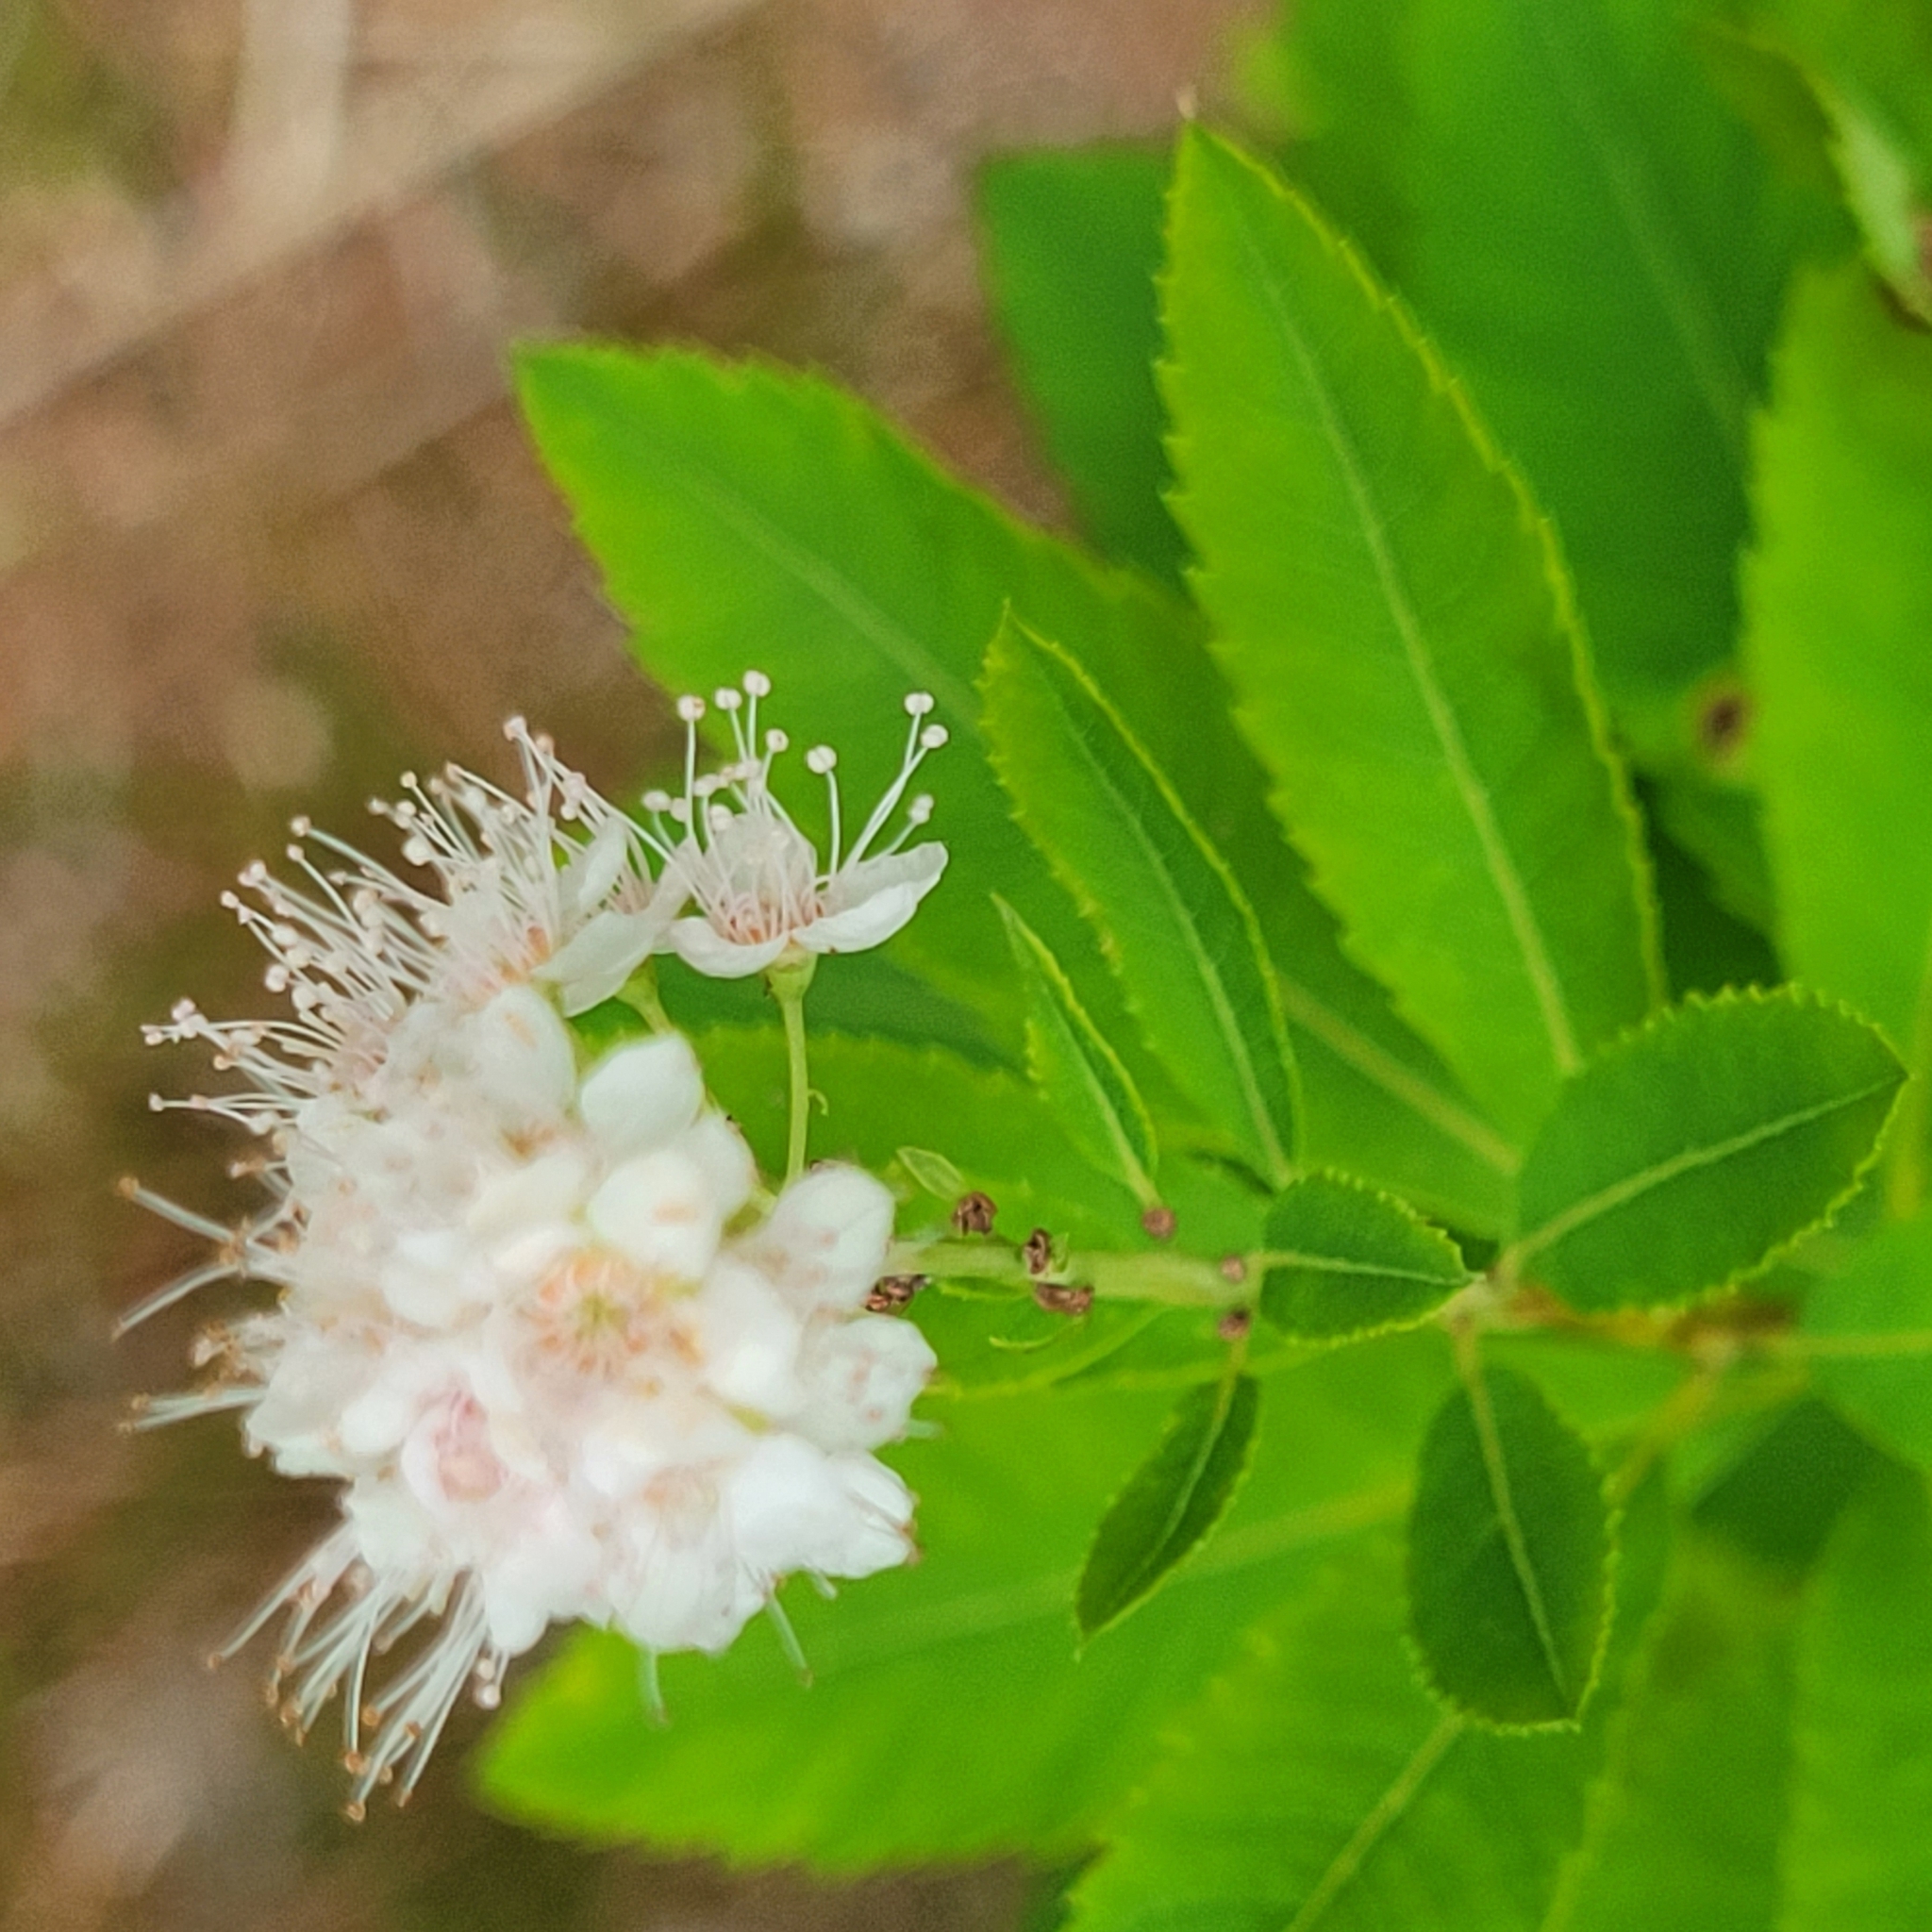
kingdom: Plantae
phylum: Tracheophyta
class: Magnoliopsida
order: Rosales
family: Rosaceae
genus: Spiraea
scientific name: Spiraea alba
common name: Pale bridewort
